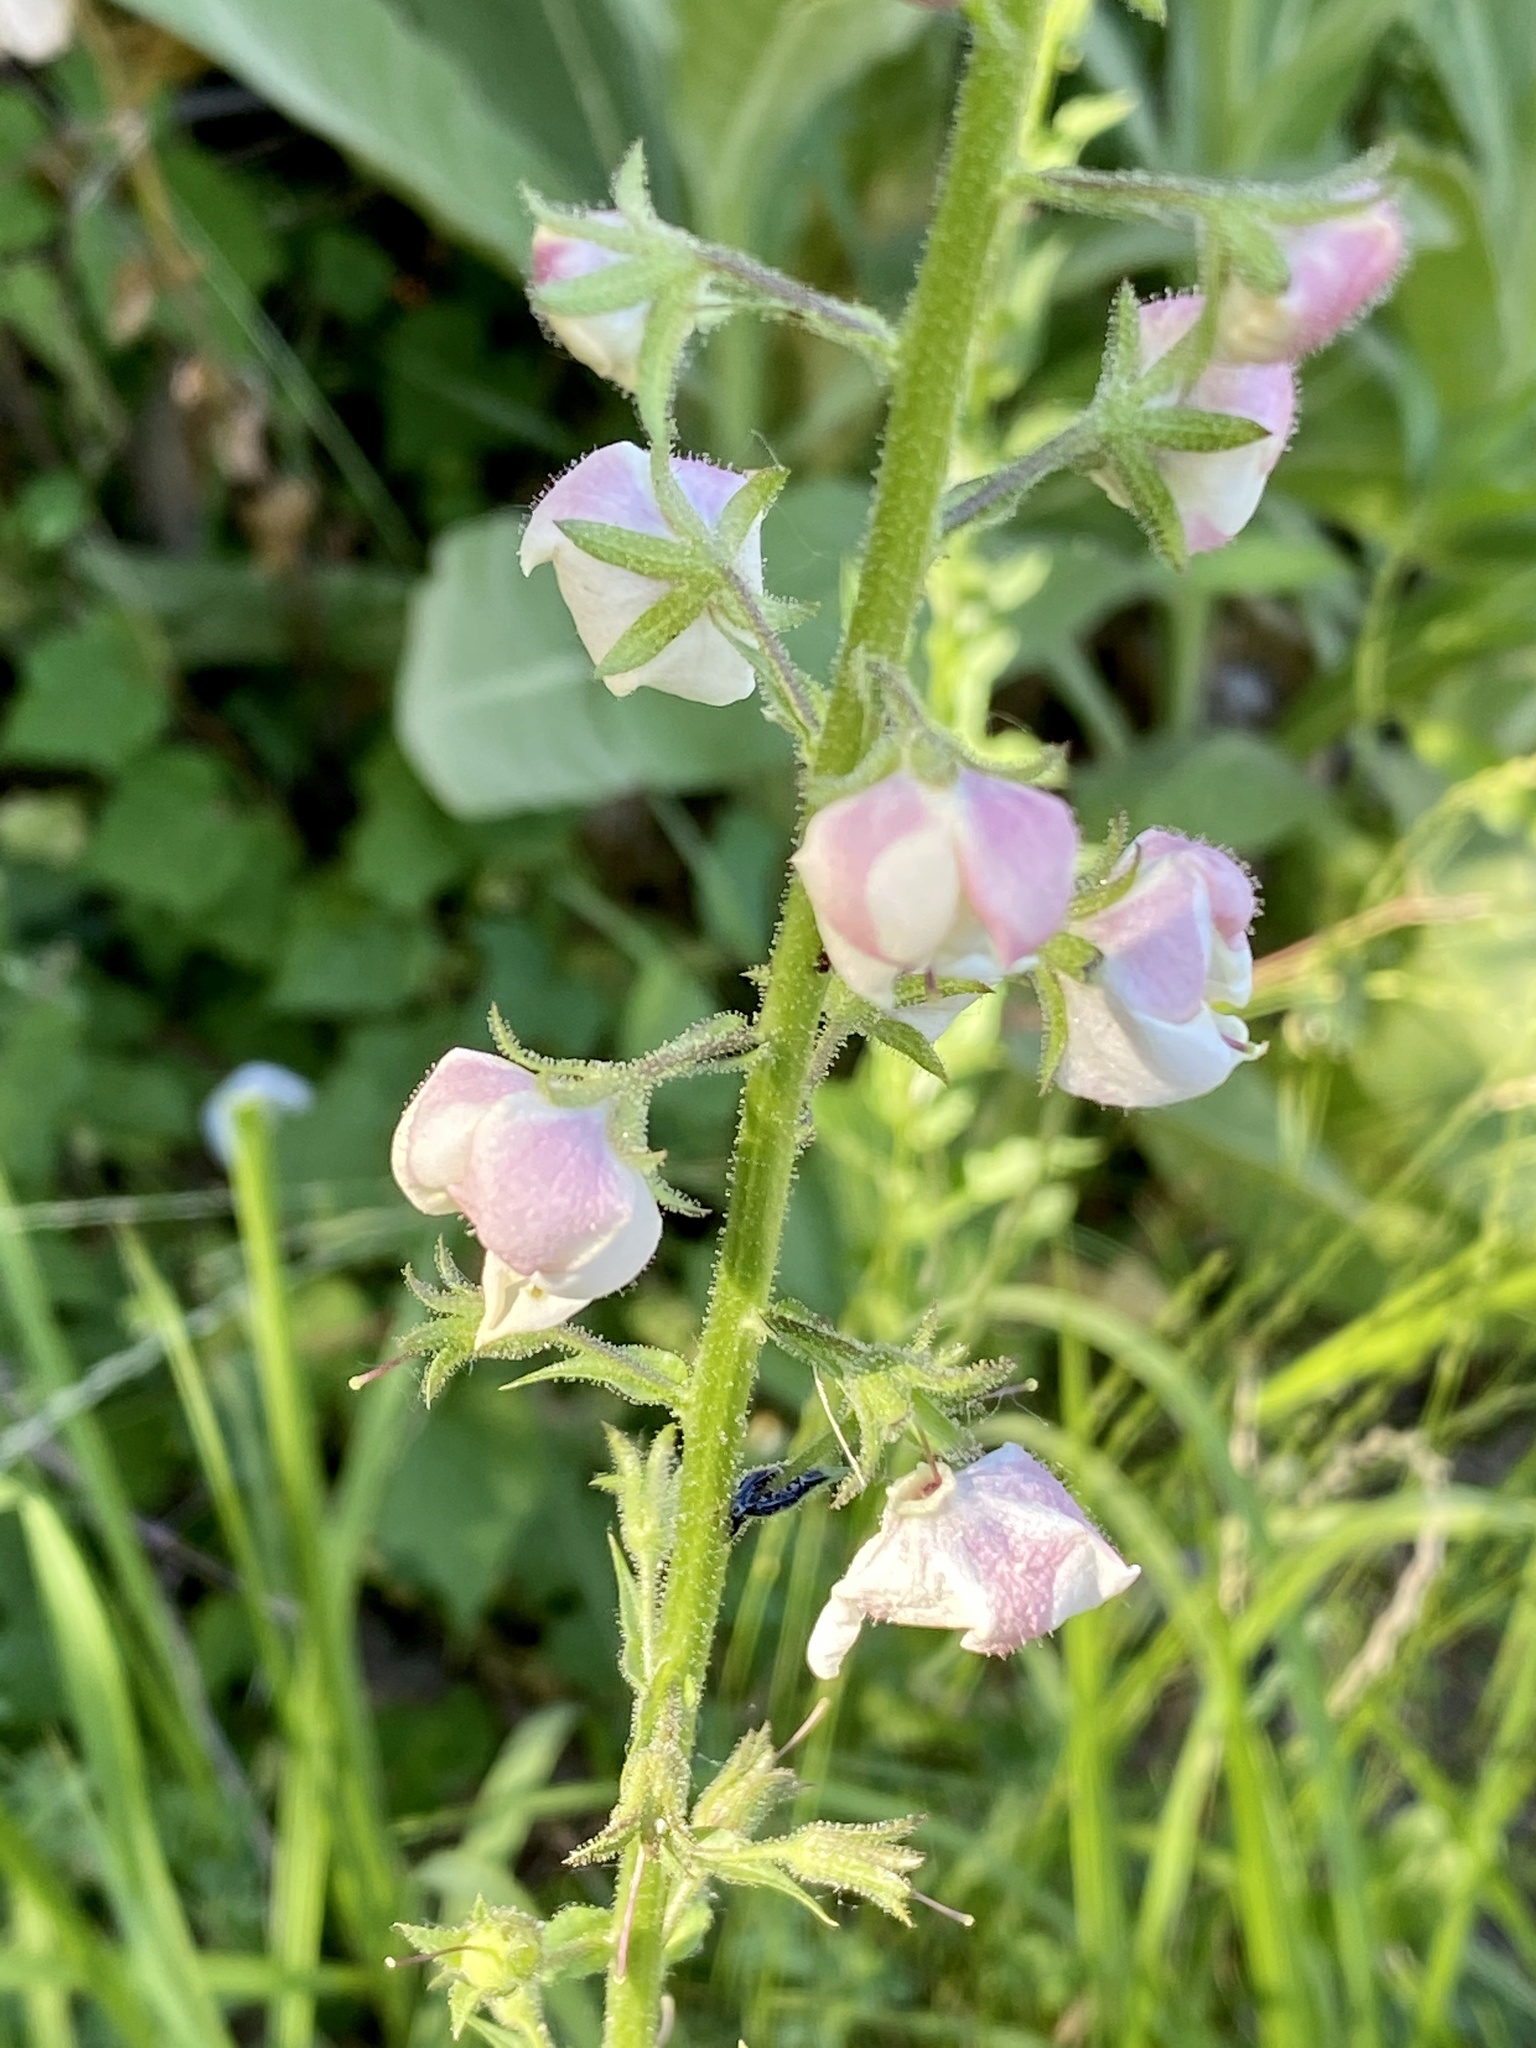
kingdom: Plantae
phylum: Tracheophyta
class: Magnoliopsida
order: Lamiales
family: Scrophulariaceae
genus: Verbascum
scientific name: Verbascum blattaria
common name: Moth mullein
